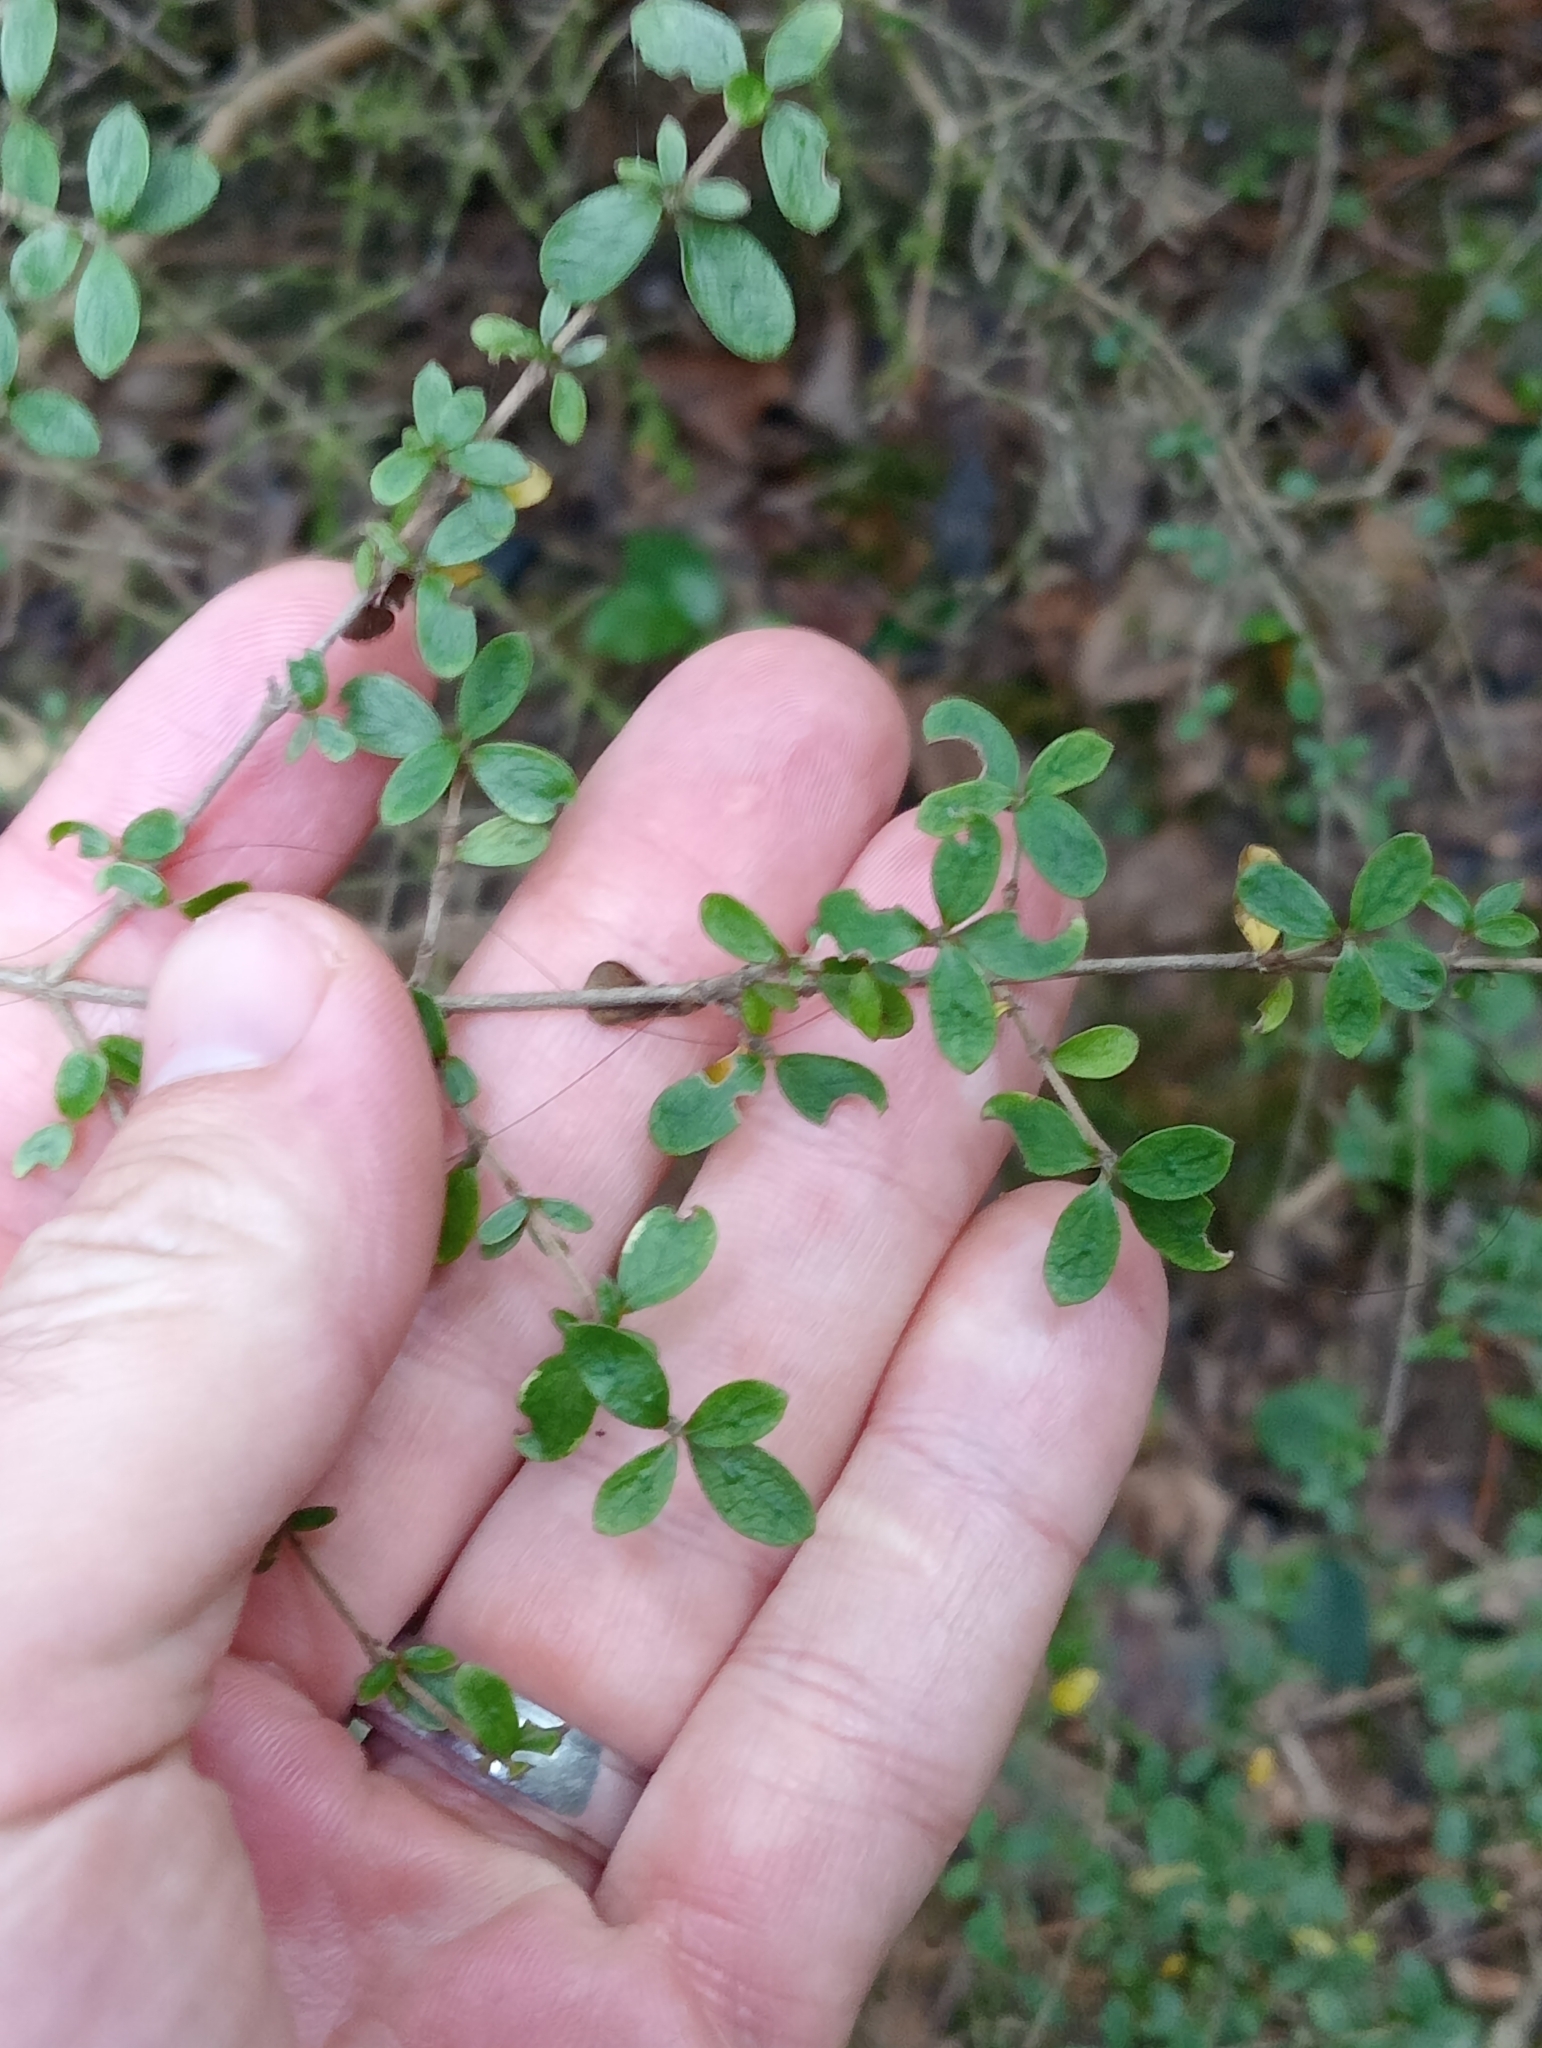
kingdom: Plantae
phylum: Tracheophyta
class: Magnoliopsida
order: Gentianales
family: Rubiaceae
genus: Coprosma
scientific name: Coprosma dumosa
